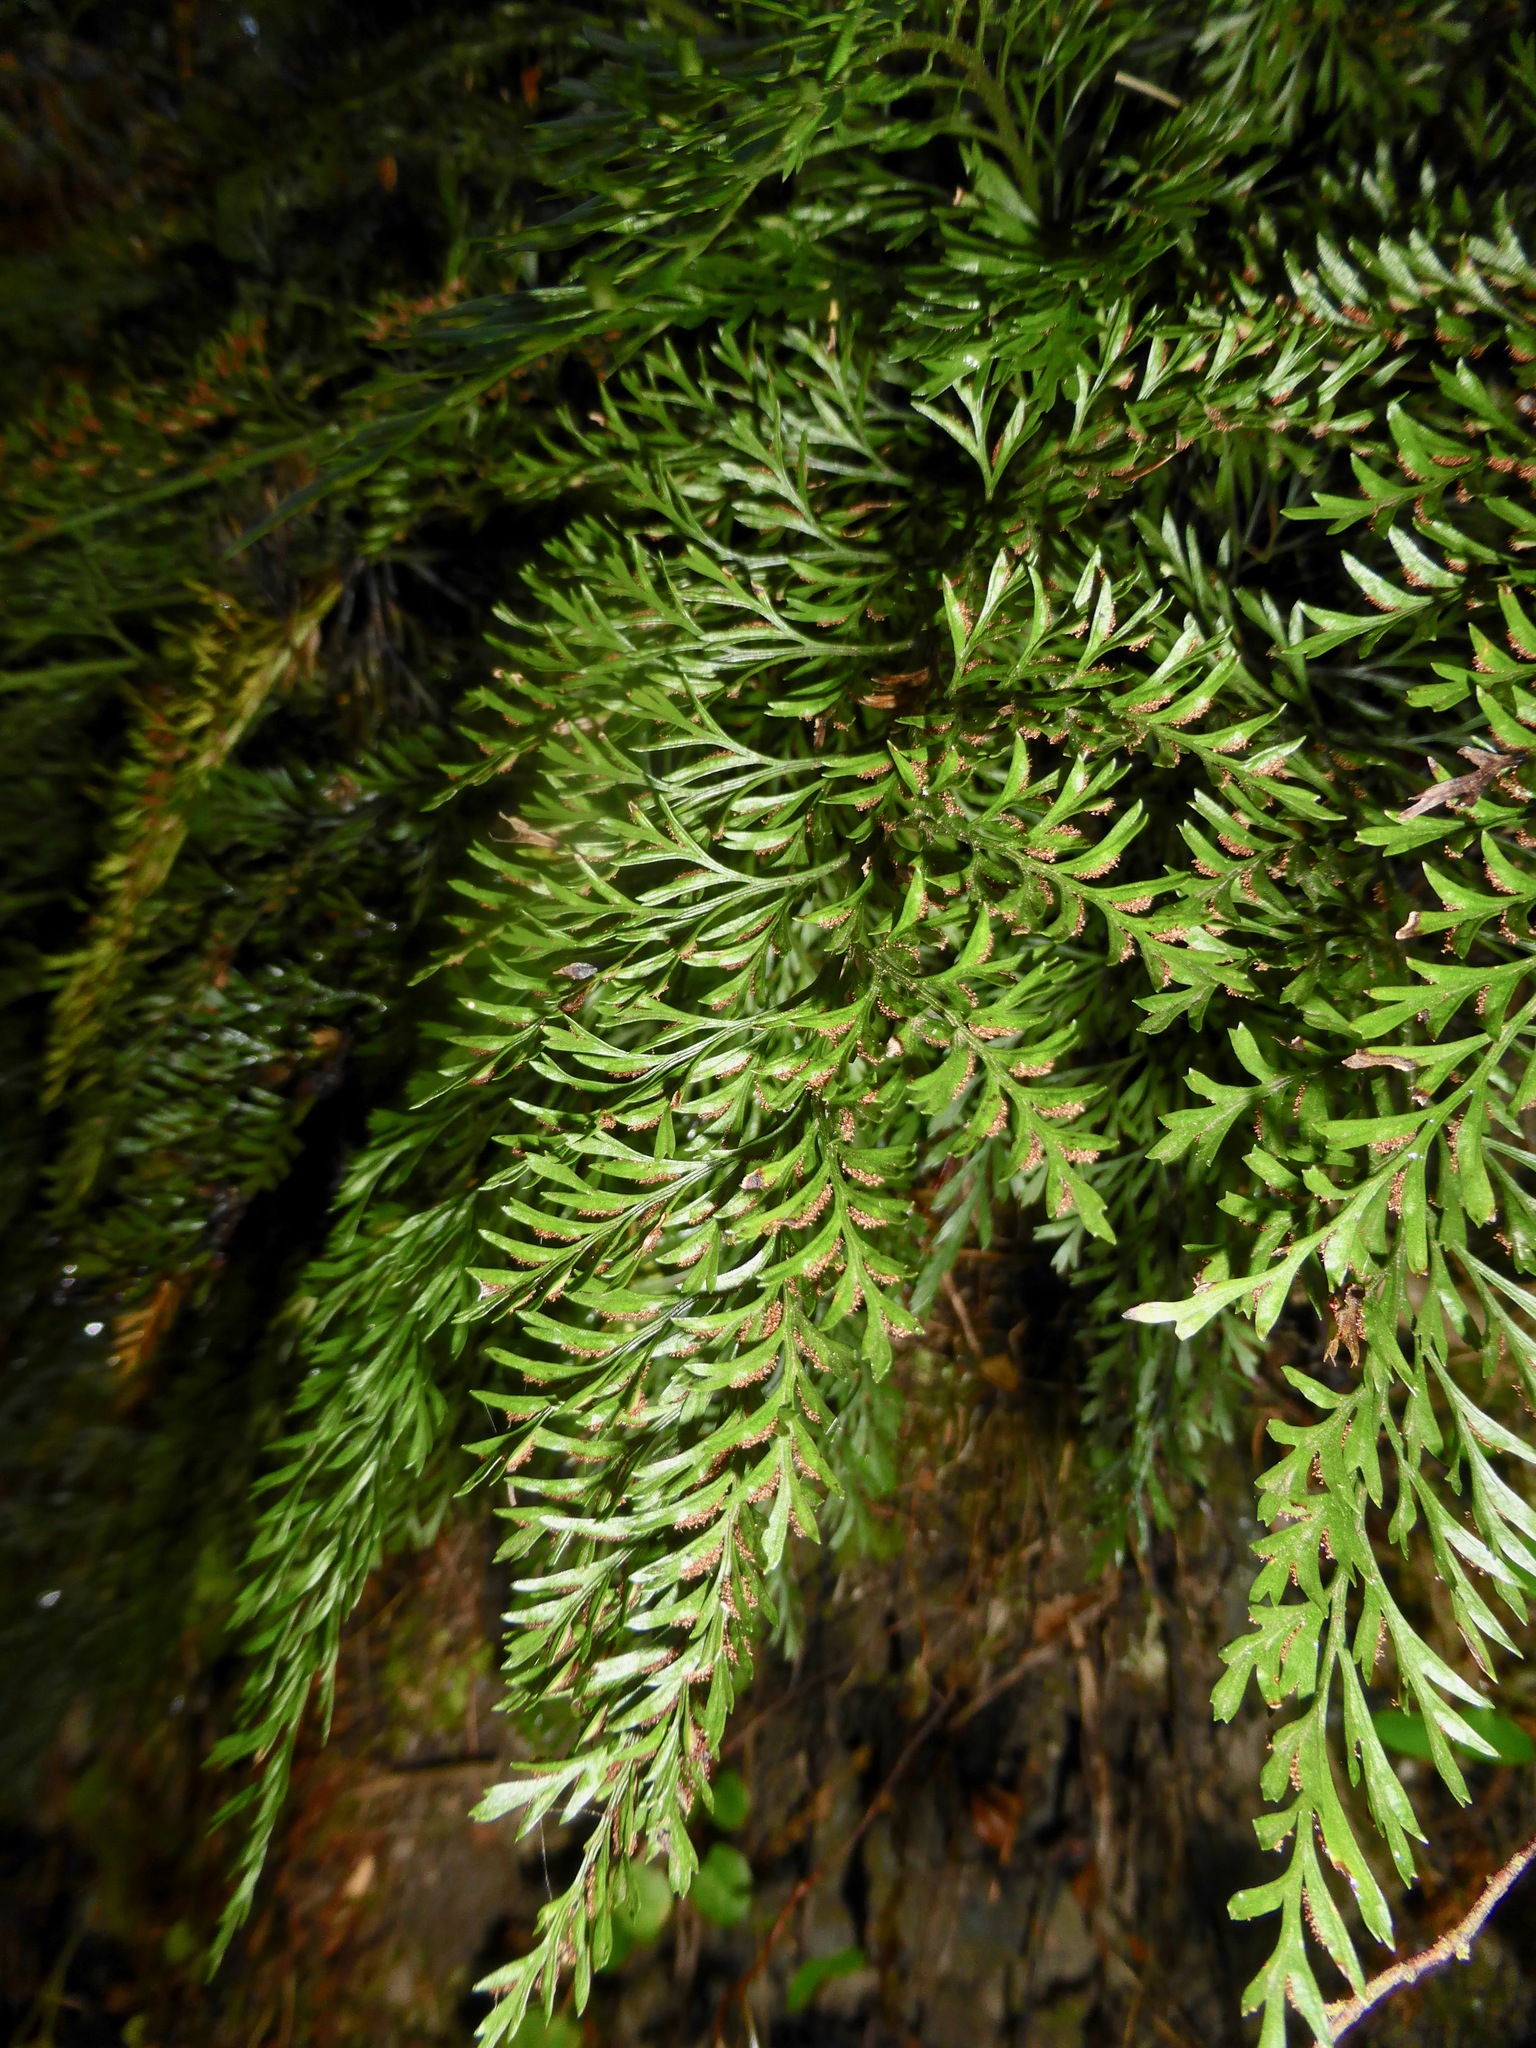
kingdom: Plantae
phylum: Tracheophyta
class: Polypodiopsida
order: Polypodiales
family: Aspleniaceae
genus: Asplenium
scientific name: Asplenium richardii
